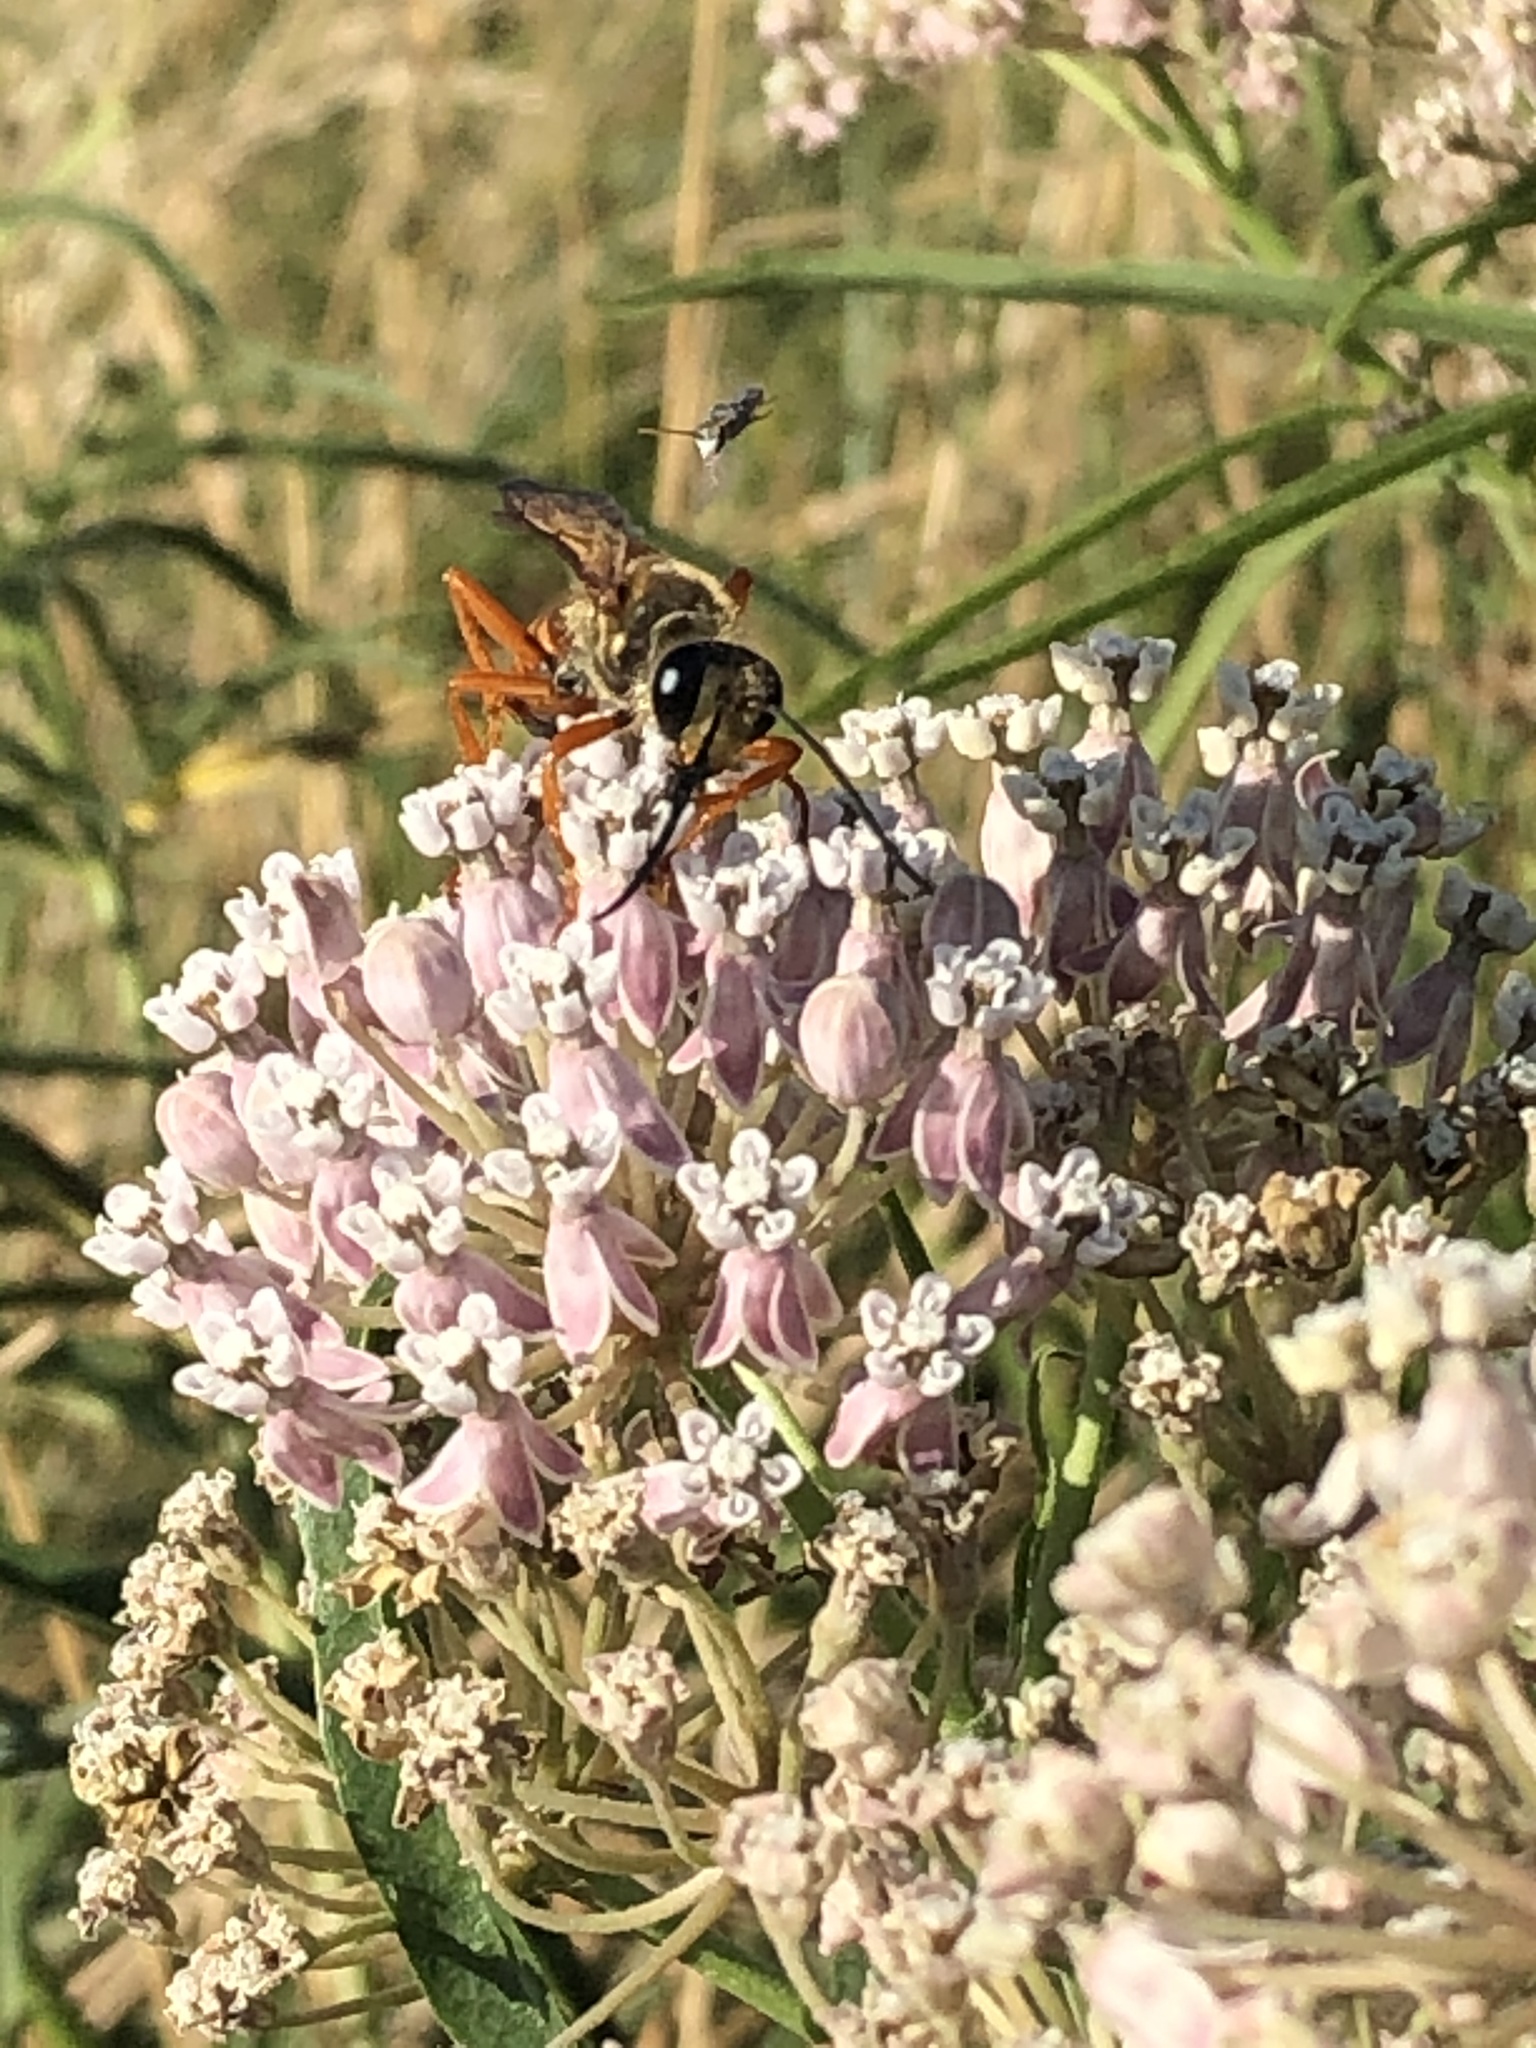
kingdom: Animalia
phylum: Arthropoda
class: Insecta
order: Hymenoptera
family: Sphecidae
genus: Sphex
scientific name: Sphex ichneumoneus
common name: Great golden digger wasp
